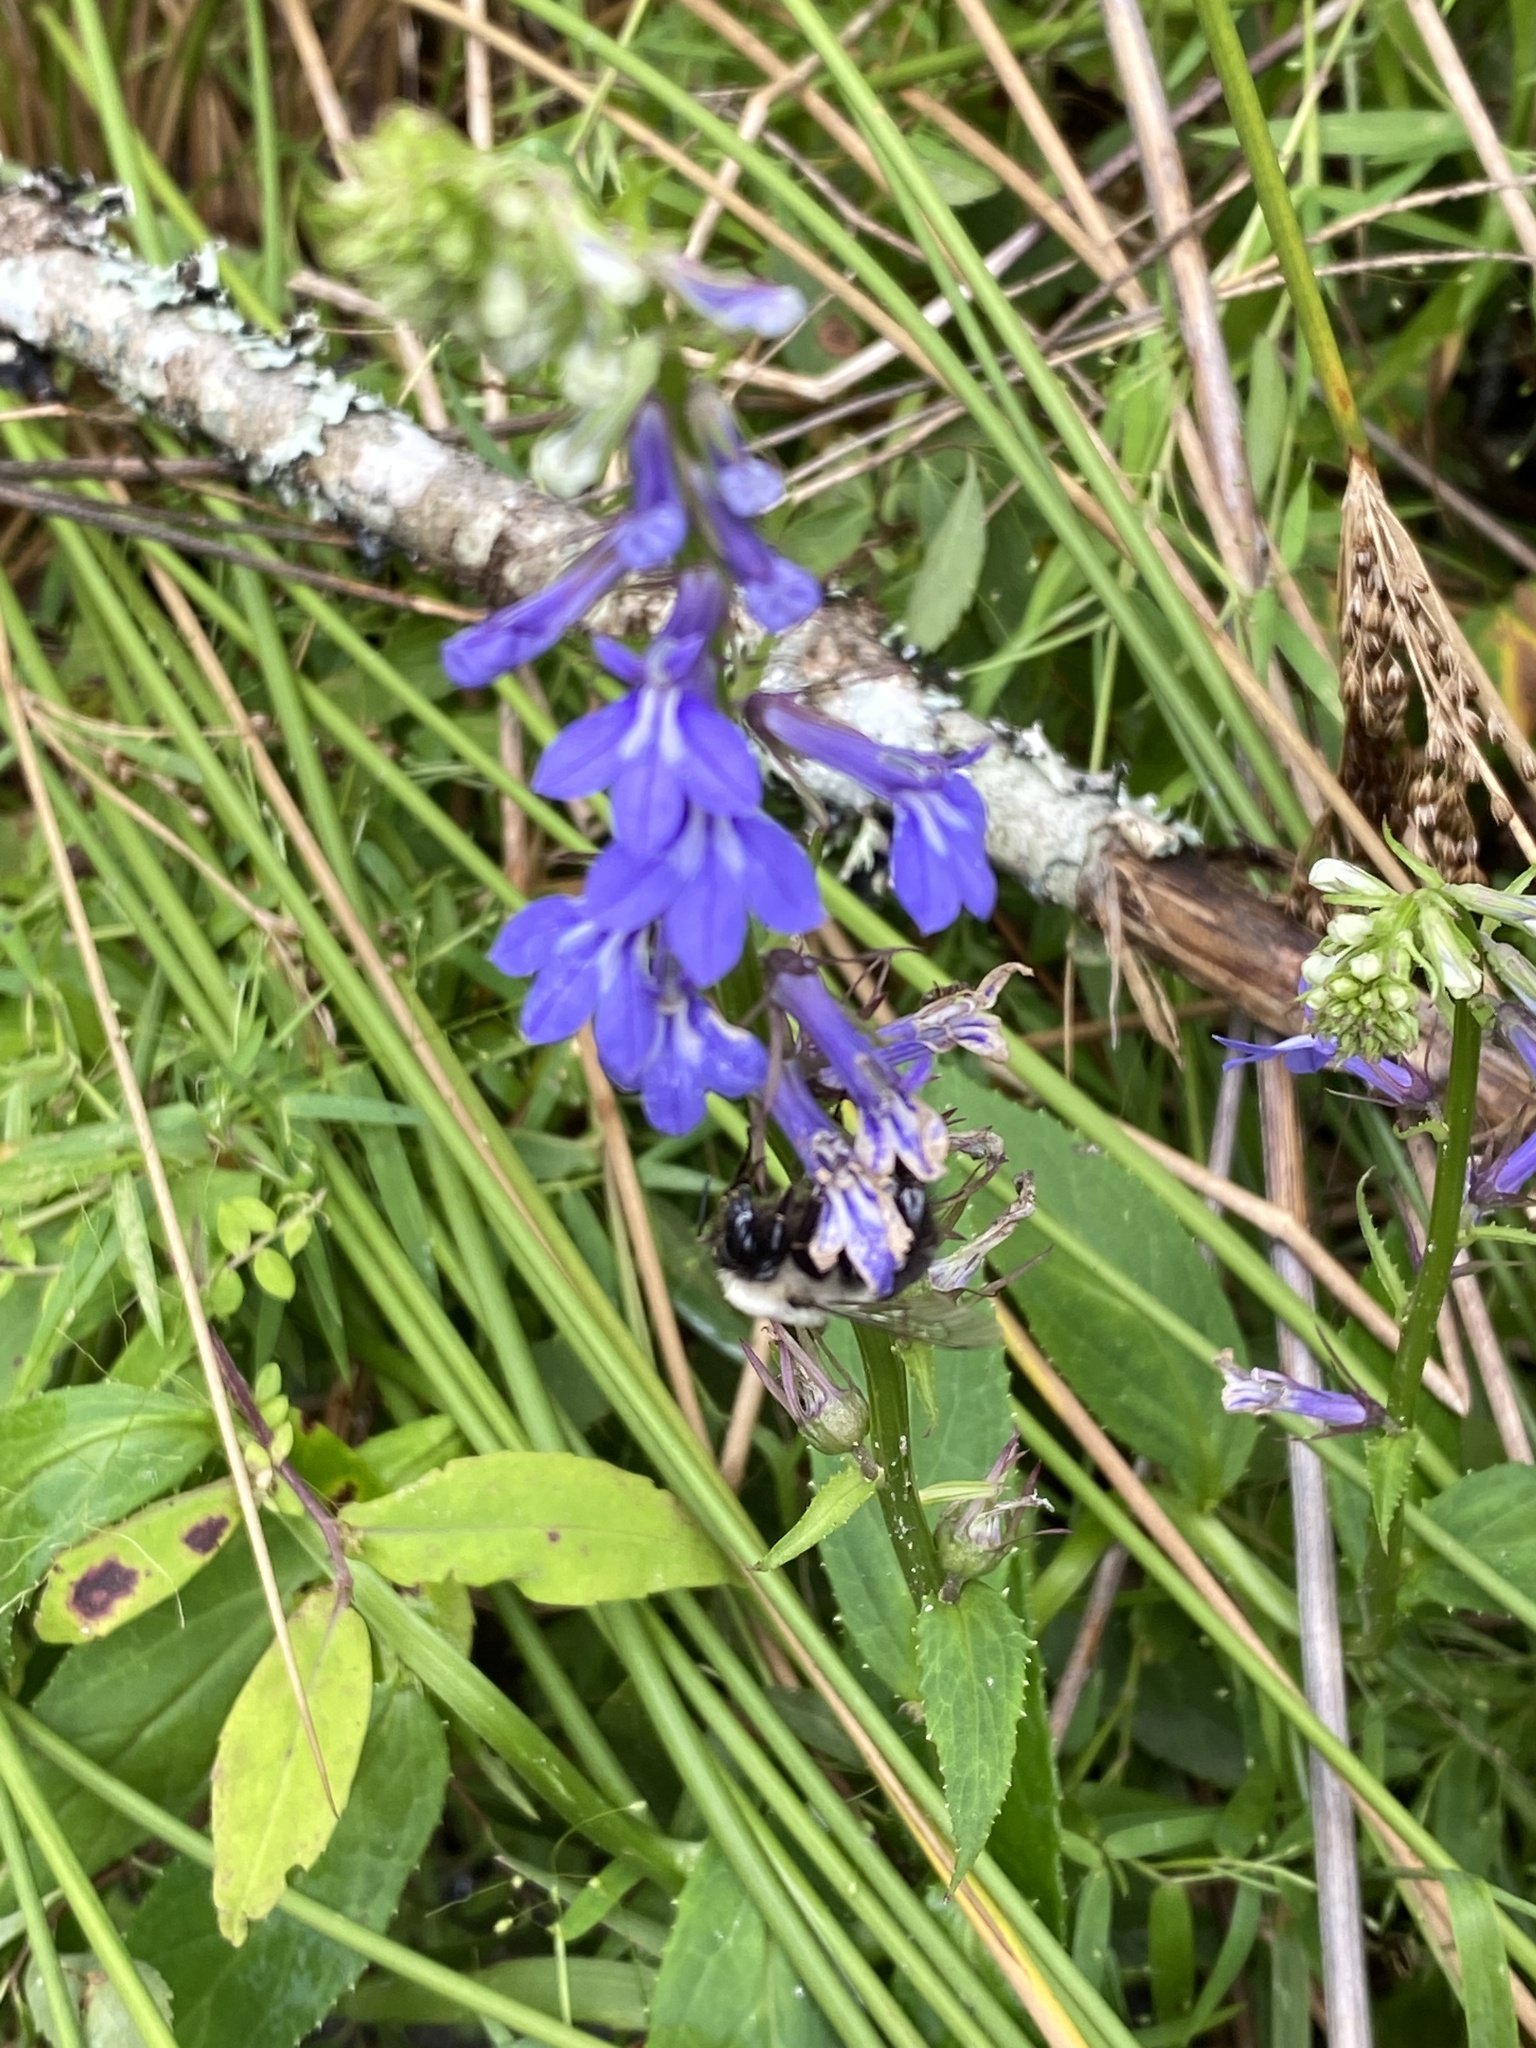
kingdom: Plantae
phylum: Tracheophyta
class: Magnoliopsida
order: Asterales
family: Campanulaceae
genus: Lobelia
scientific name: Lobelia siphilitica
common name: Great lobelia
